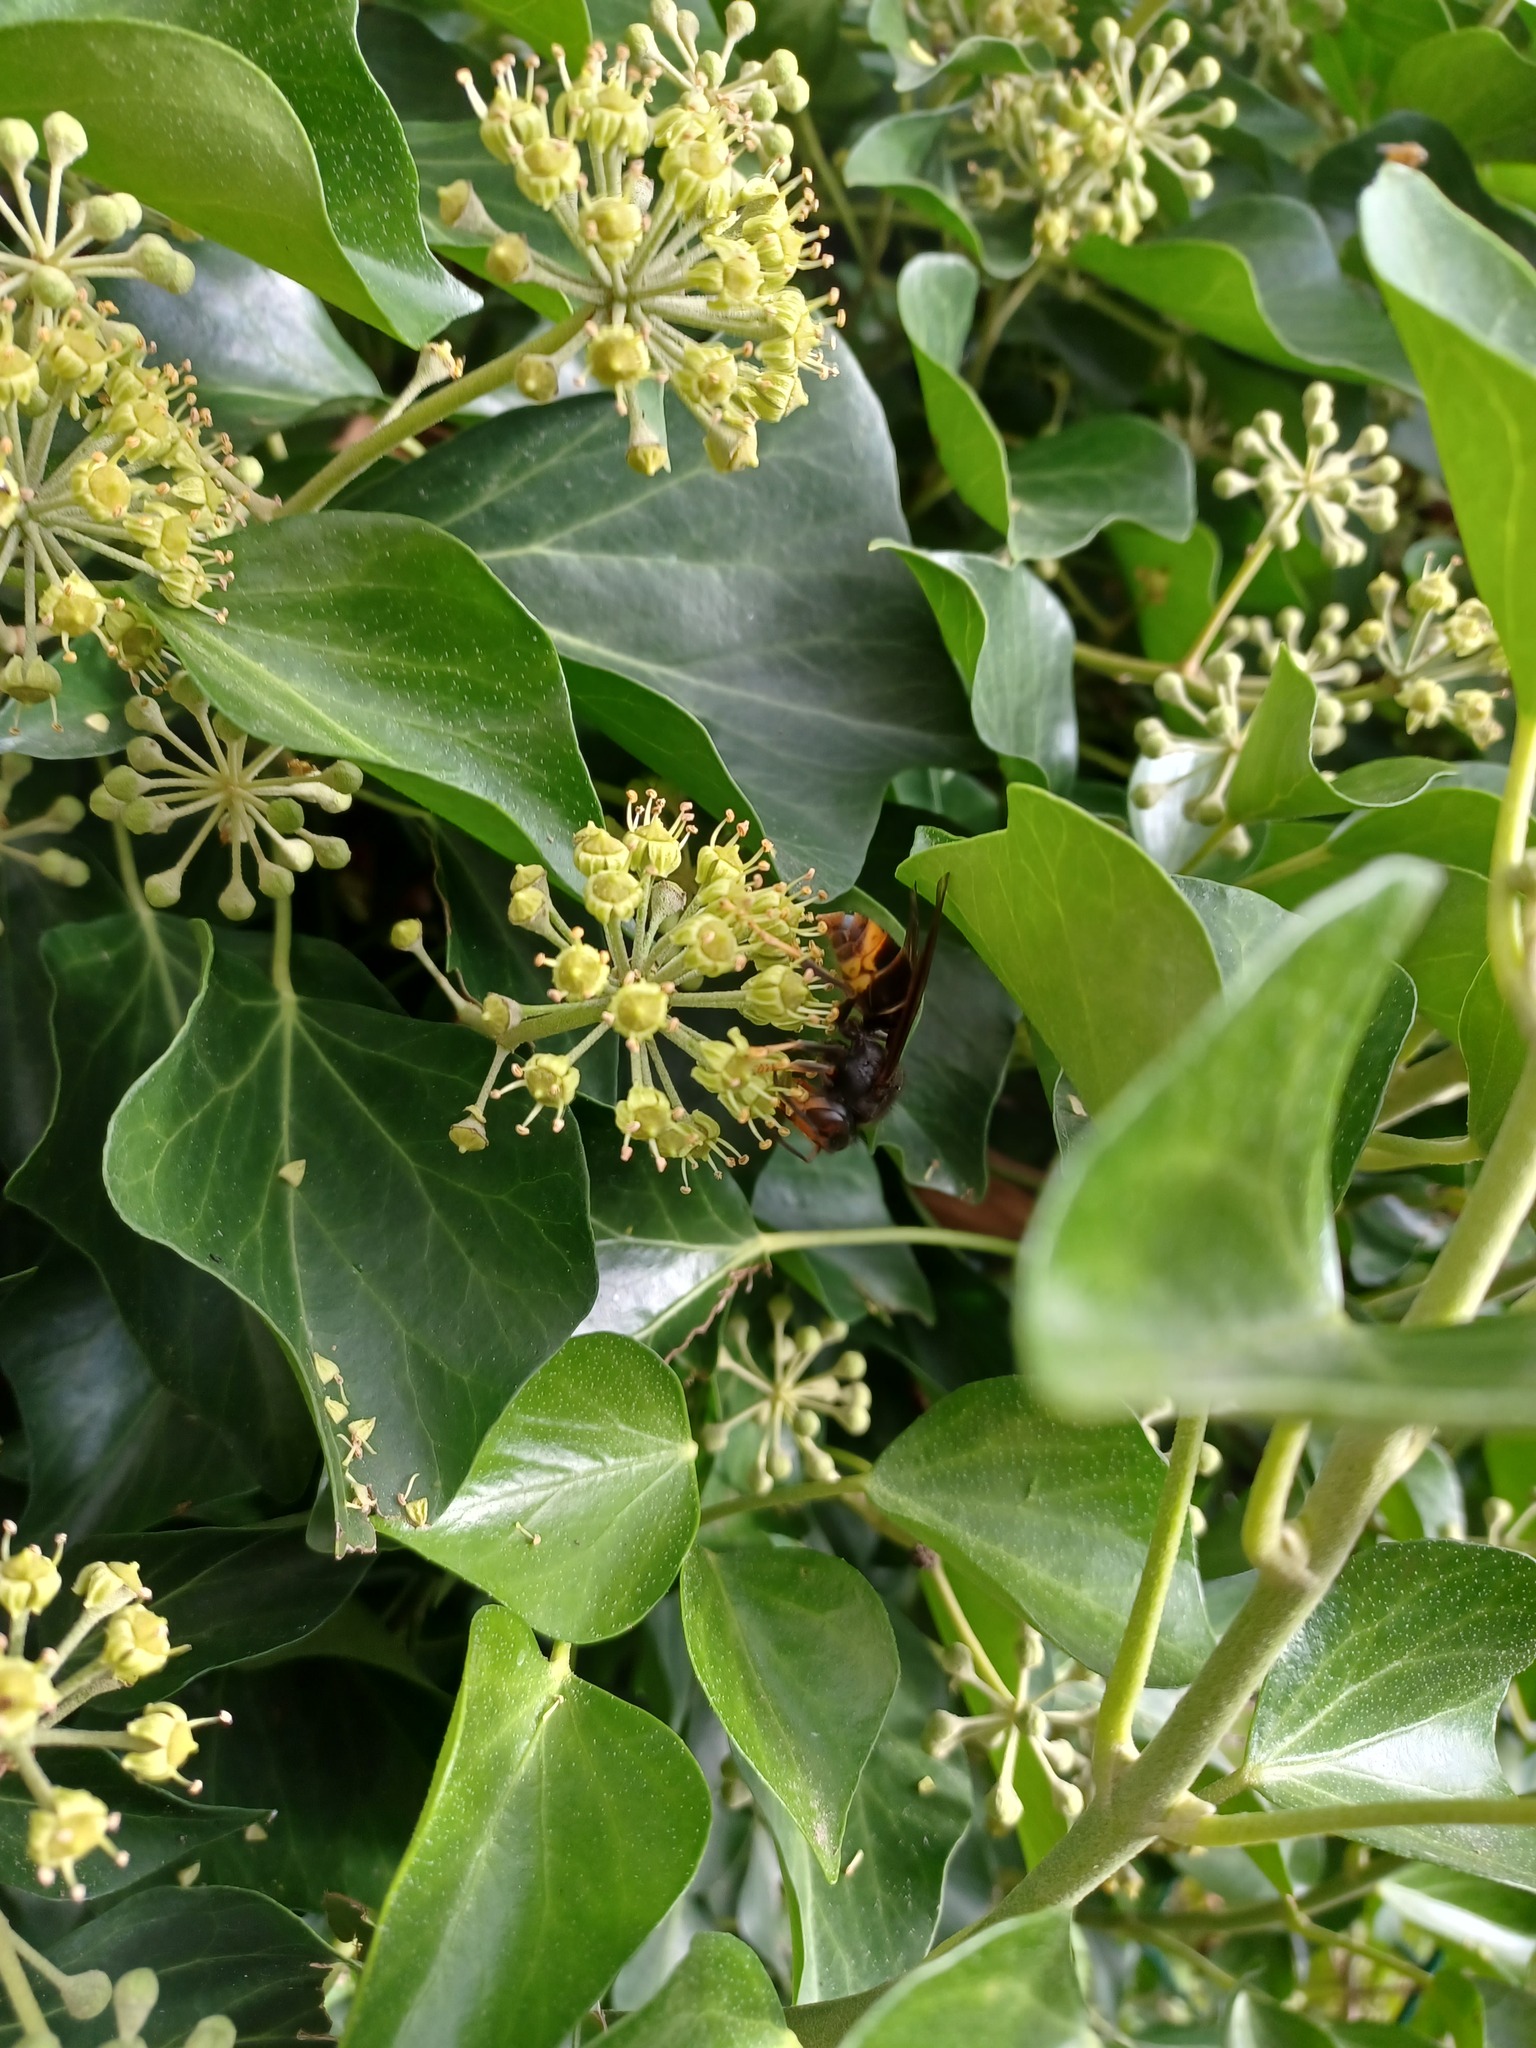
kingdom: Animalia
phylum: Arthropoda
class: Insecta
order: Hymenoptera
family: Vespidae
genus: Vespa
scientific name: Vespa velutina
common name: Asian hornet
